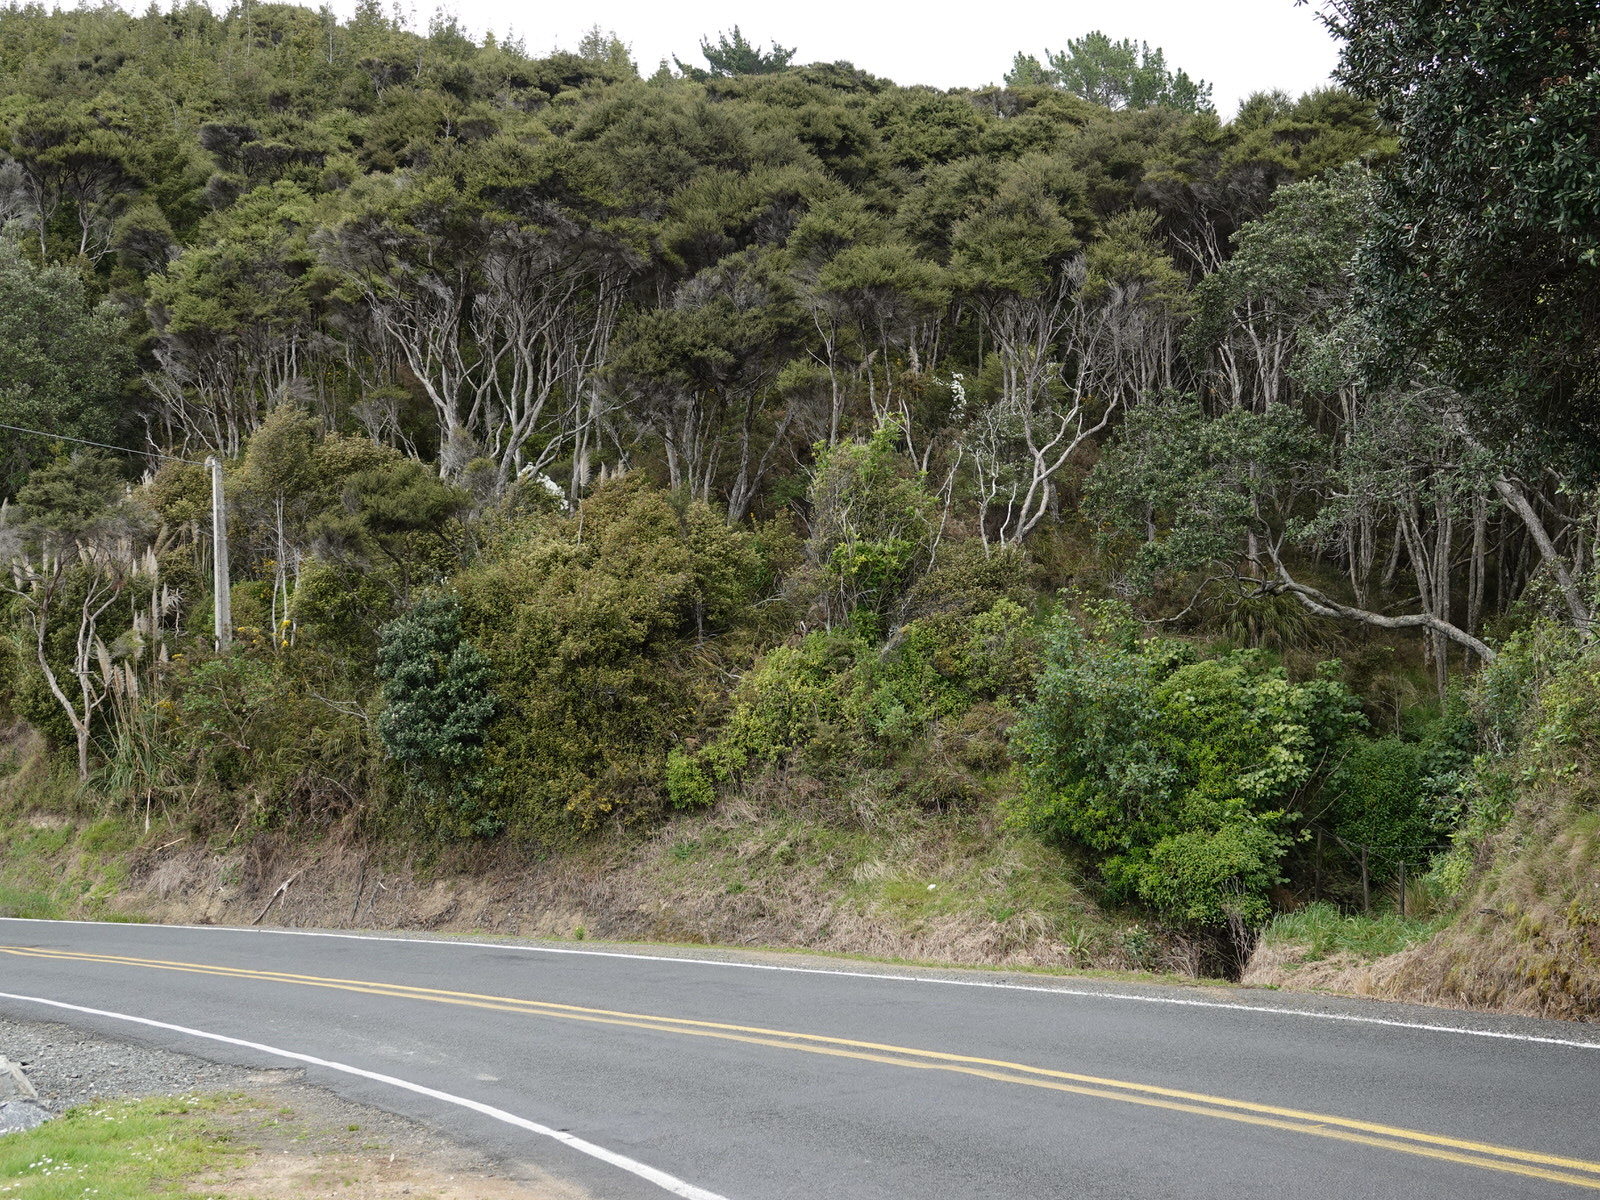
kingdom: Plantae
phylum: Tracheophyta
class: Magnoliopsida
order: Ranunculales
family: Ranunculaceae
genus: Clematis
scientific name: Clematis paniculata
